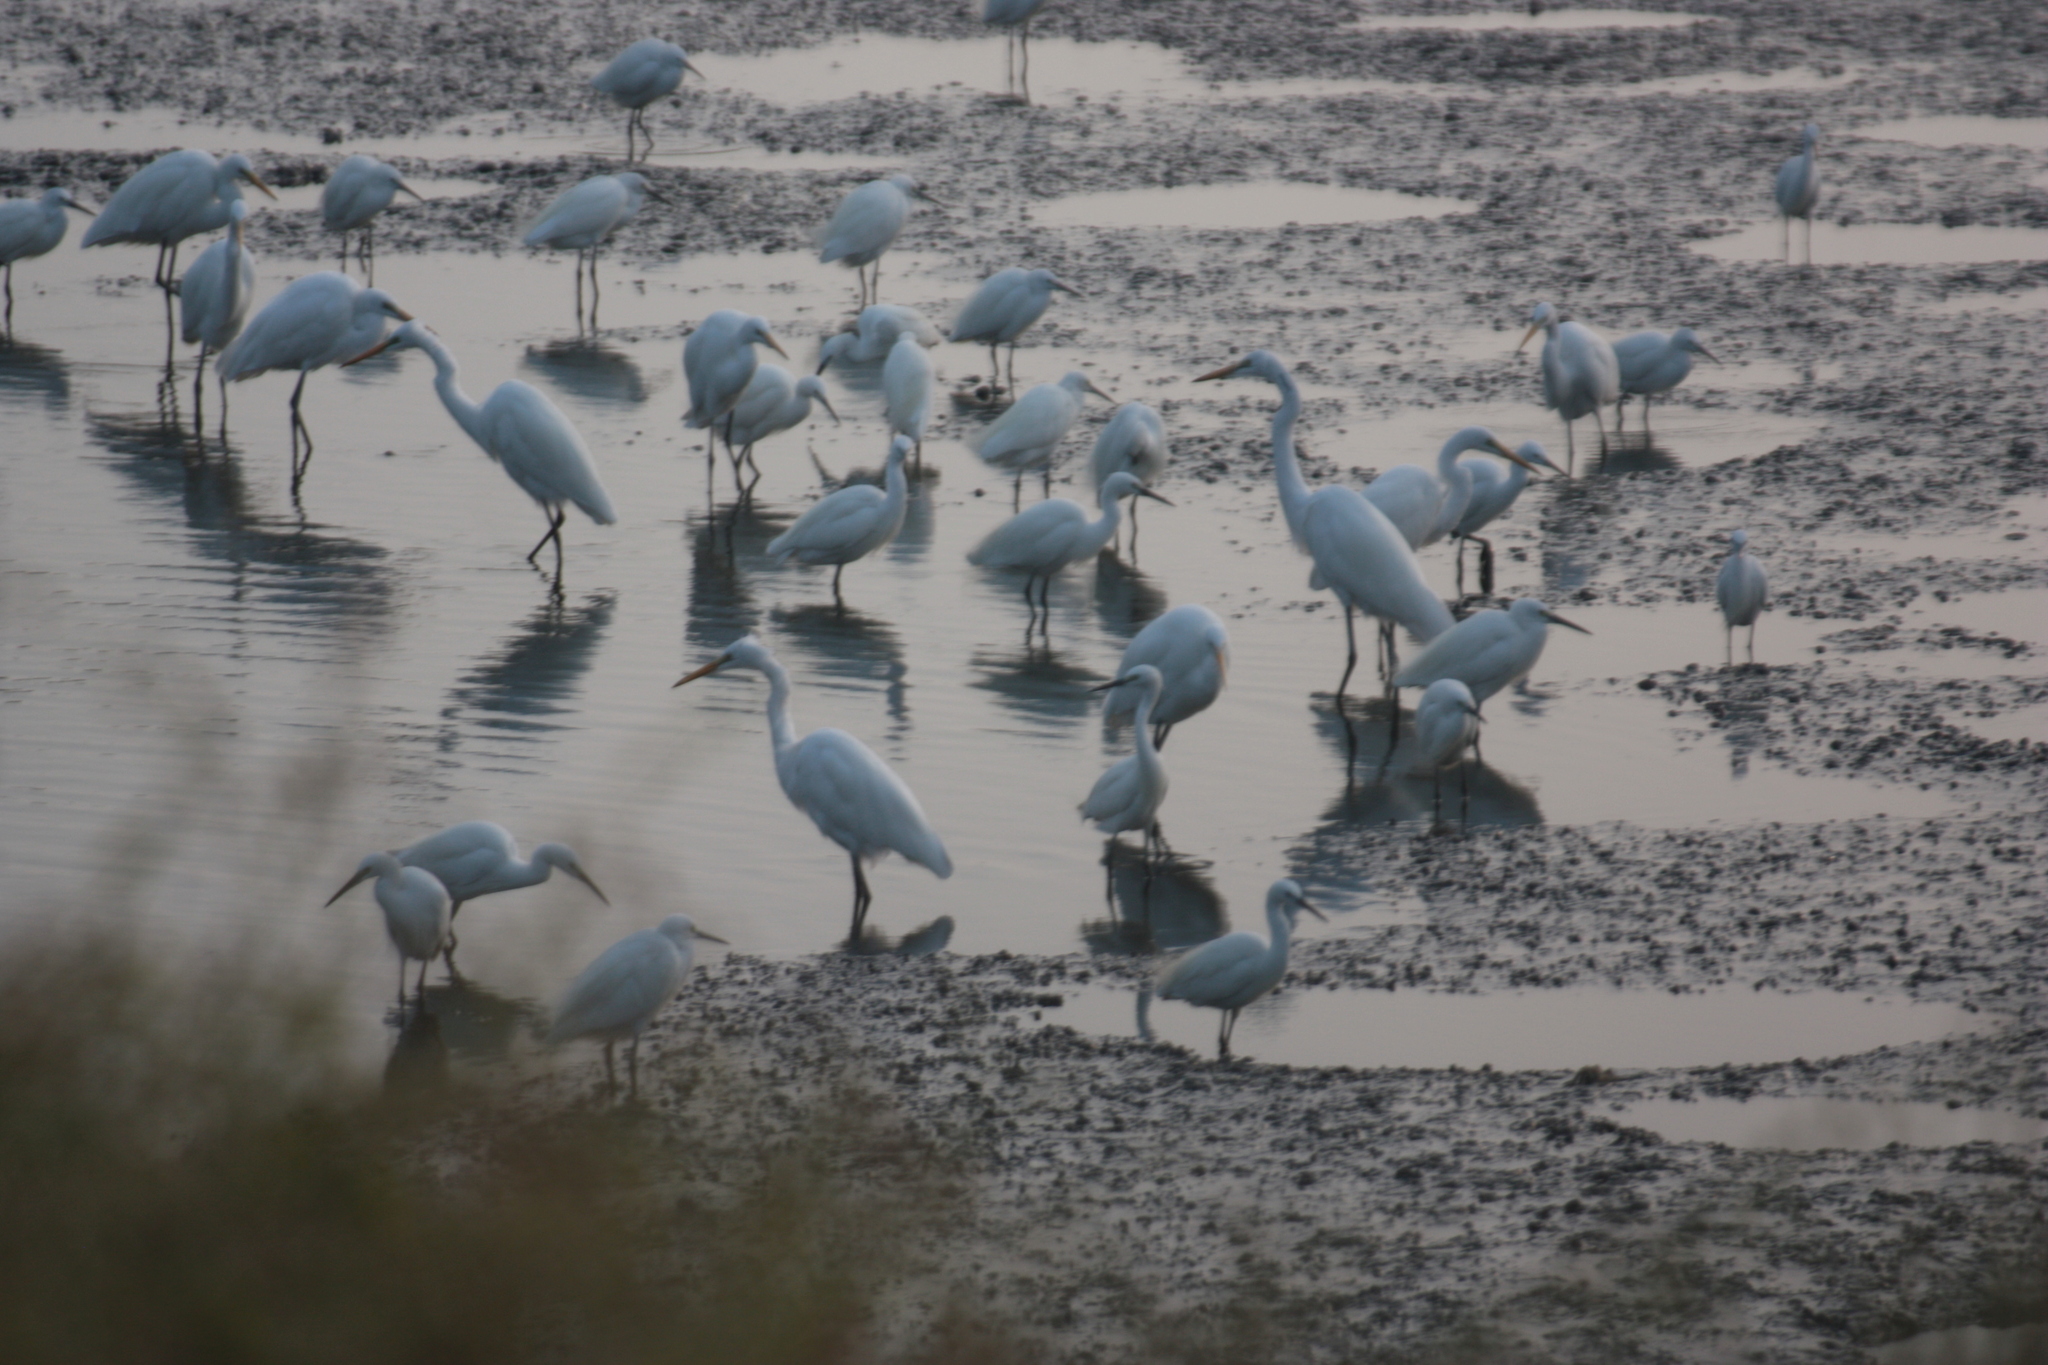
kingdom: Animalia
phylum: Chordata
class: Aves
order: Pelecaniformes
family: Ardeidae
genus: Egretta
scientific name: Egretta garzetta
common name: Little egret
